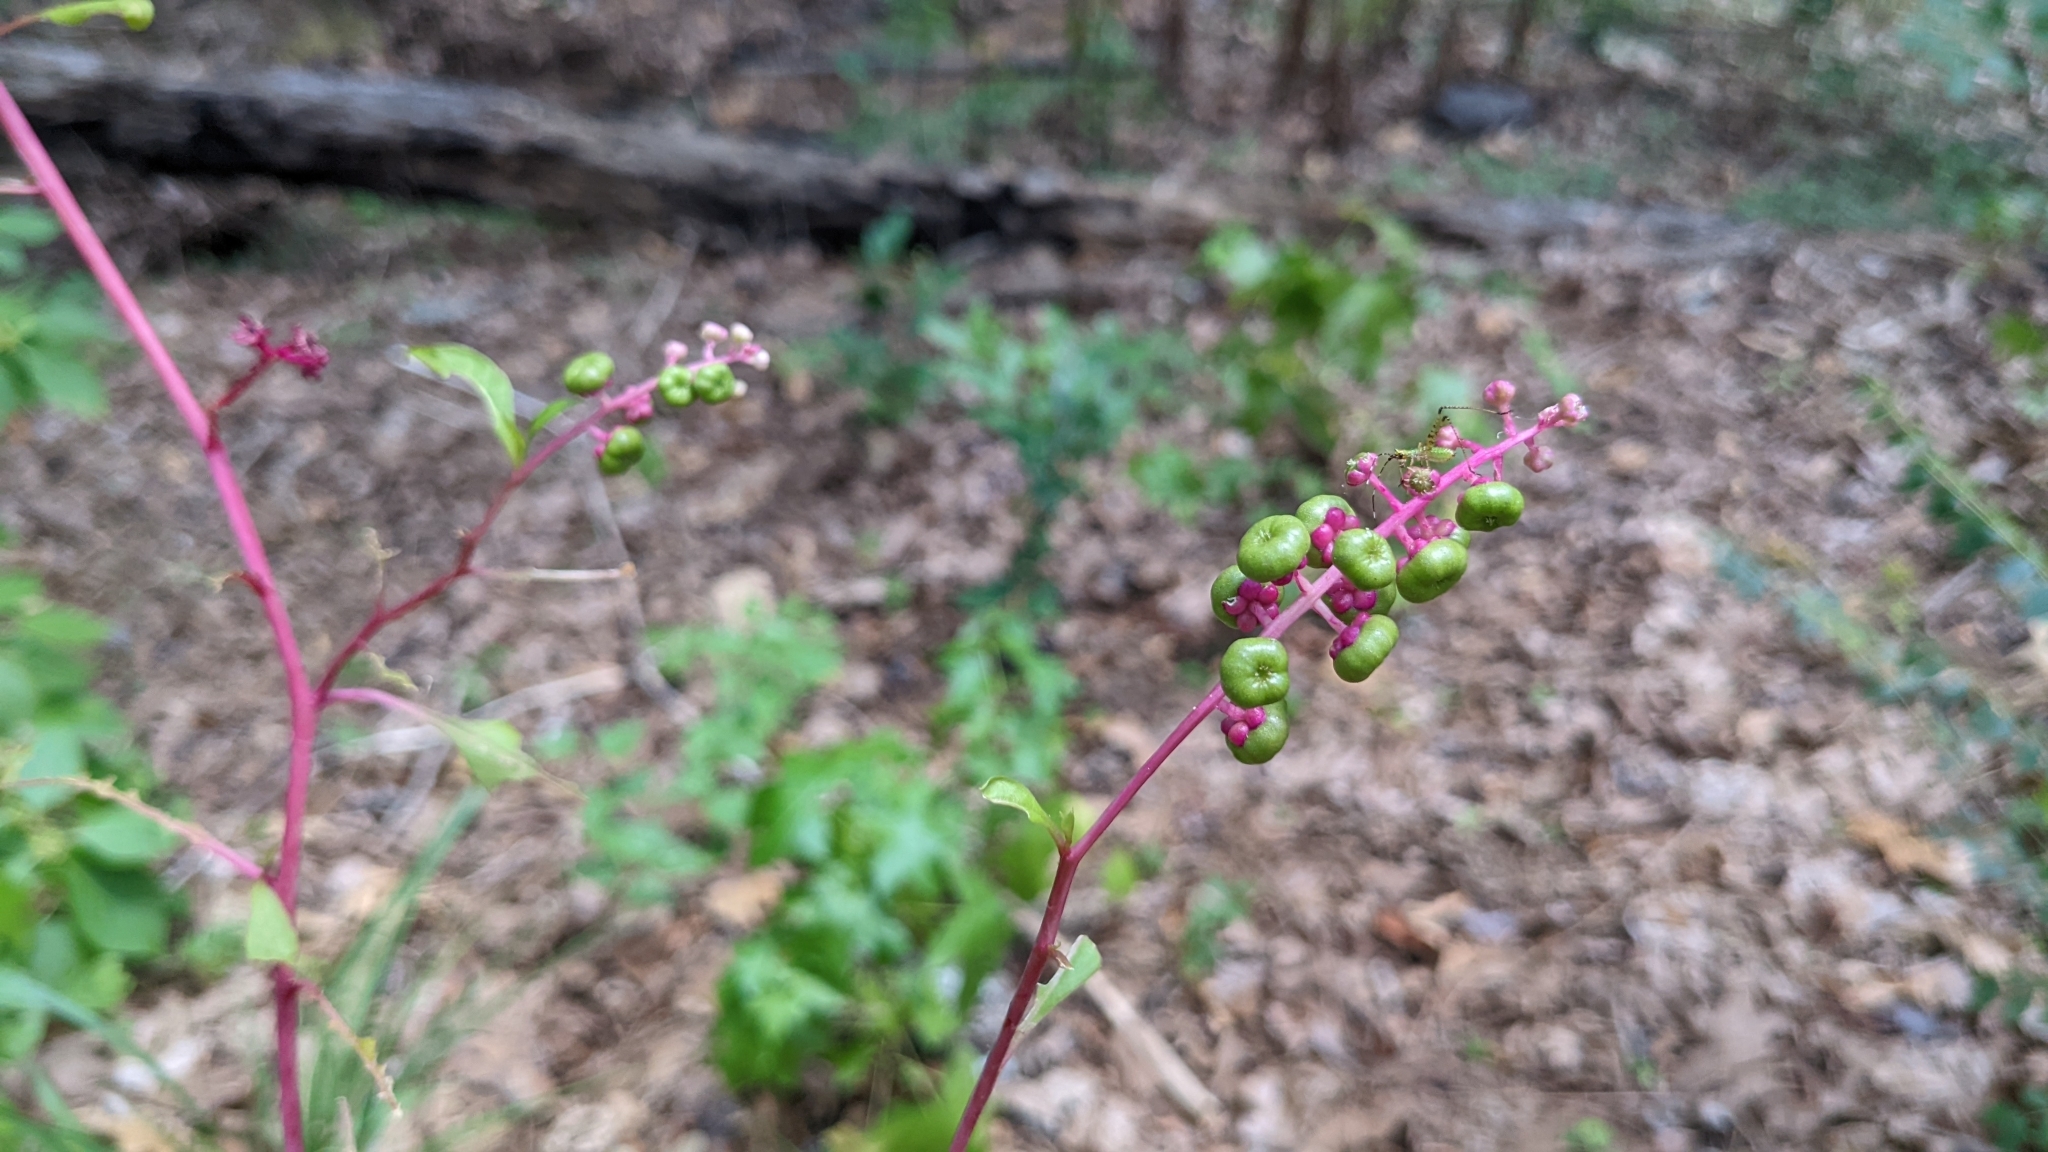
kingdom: Plantae
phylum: Tracheophyta
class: Magnoliopsida
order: Caryophyllales
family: Phytolaccaceae
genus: Phytolacca
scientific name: Phytolacca americana
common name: American pokeweed
